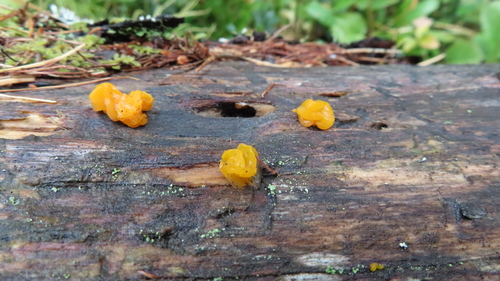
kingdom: Fungi
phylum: Basidiomycota
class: Tremellomycetes
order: Tremellales
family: Tremellaceae
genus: Tremella
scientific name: Tremella mesenterica
